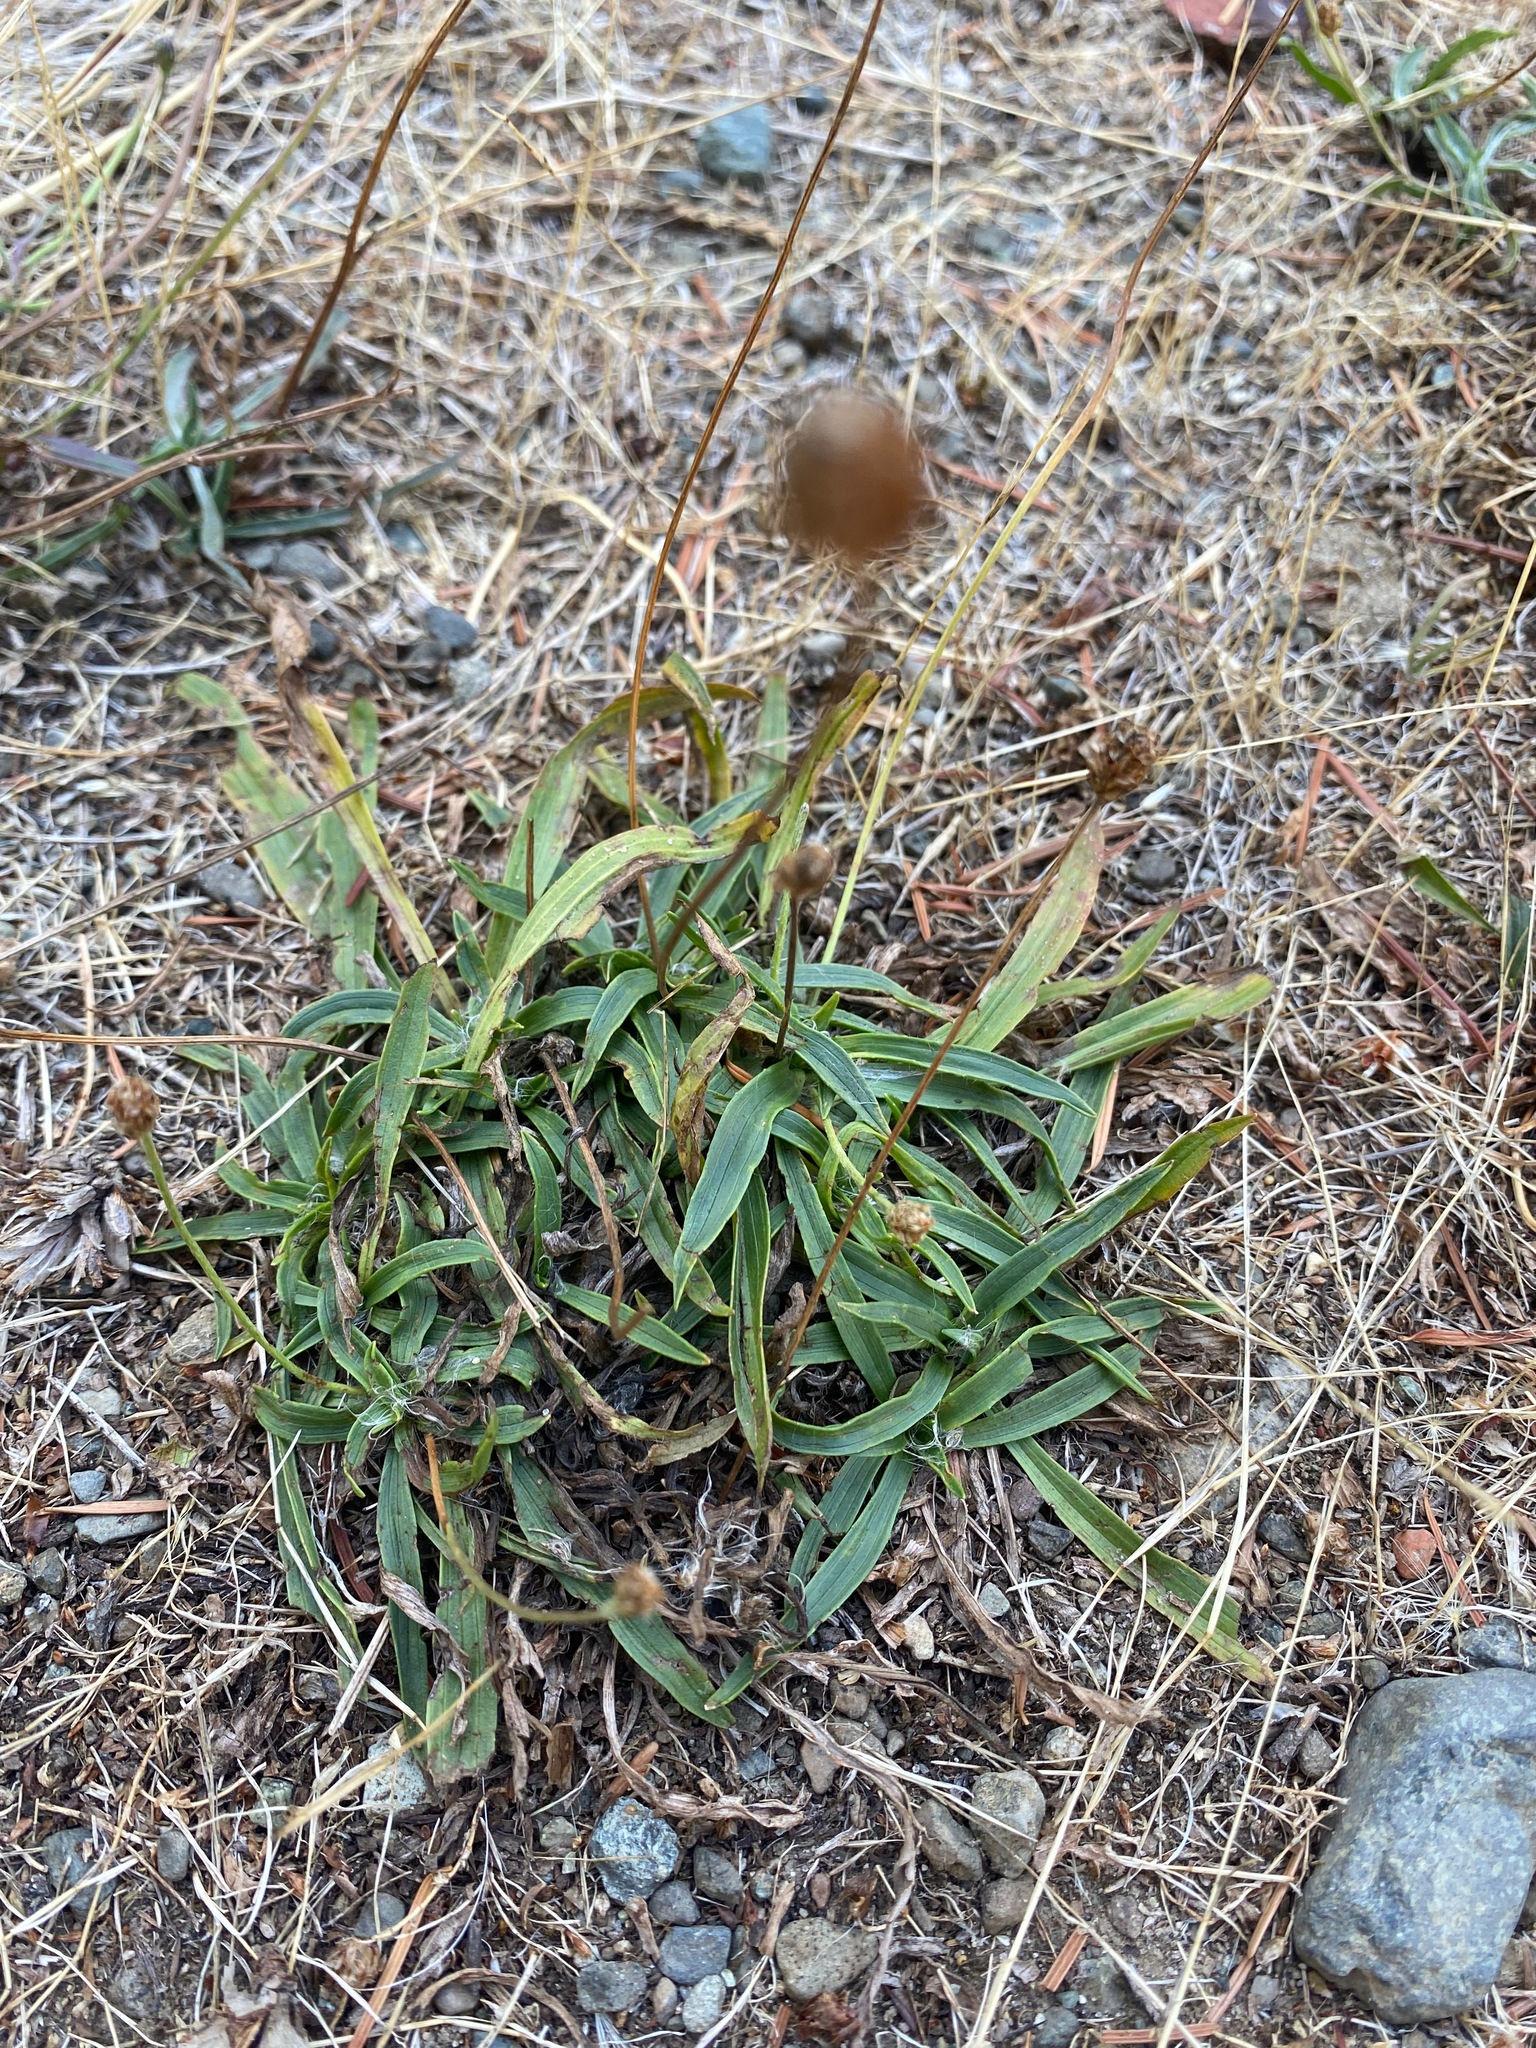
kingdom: Plantae
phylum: Tracheophyta
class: Magnoliopsida
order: Lamiales
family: Plantaginaceae
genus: Plantago
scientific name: Plantago lanceolata
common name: Ribwort plantain
